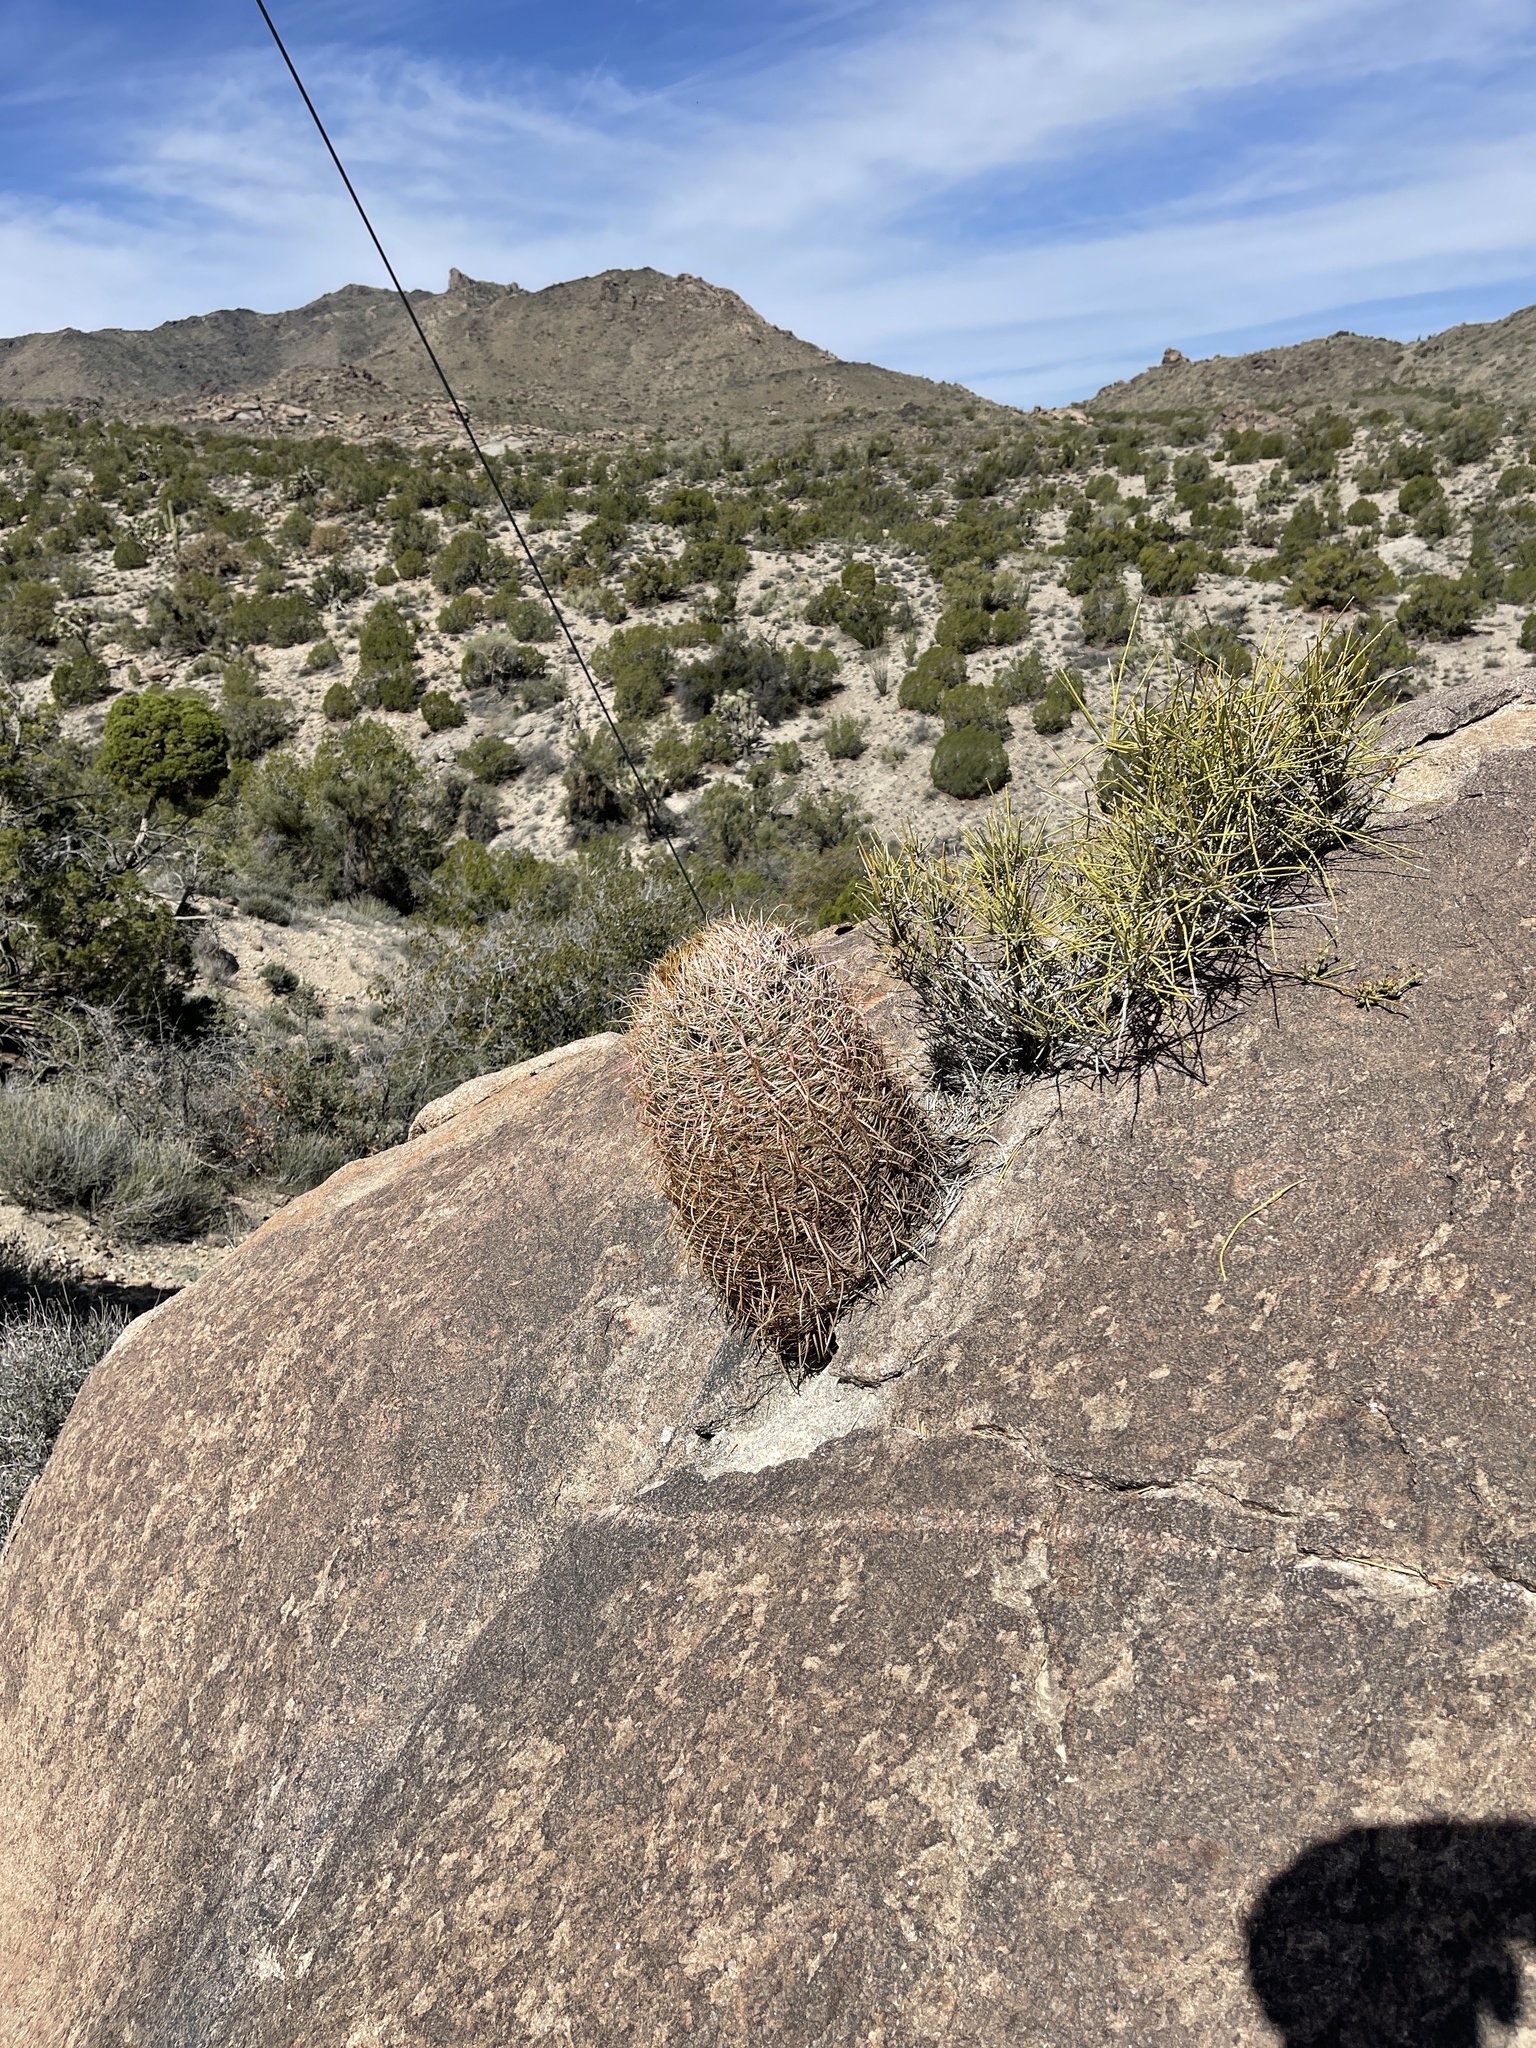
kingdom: Plantae
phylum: Tracheophyta
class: Magnoliopsida
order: Caryophyllales
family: Cactaceae
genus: Ferocactus
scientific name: Ferocactus cylindraceus
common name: California barrel cactus
